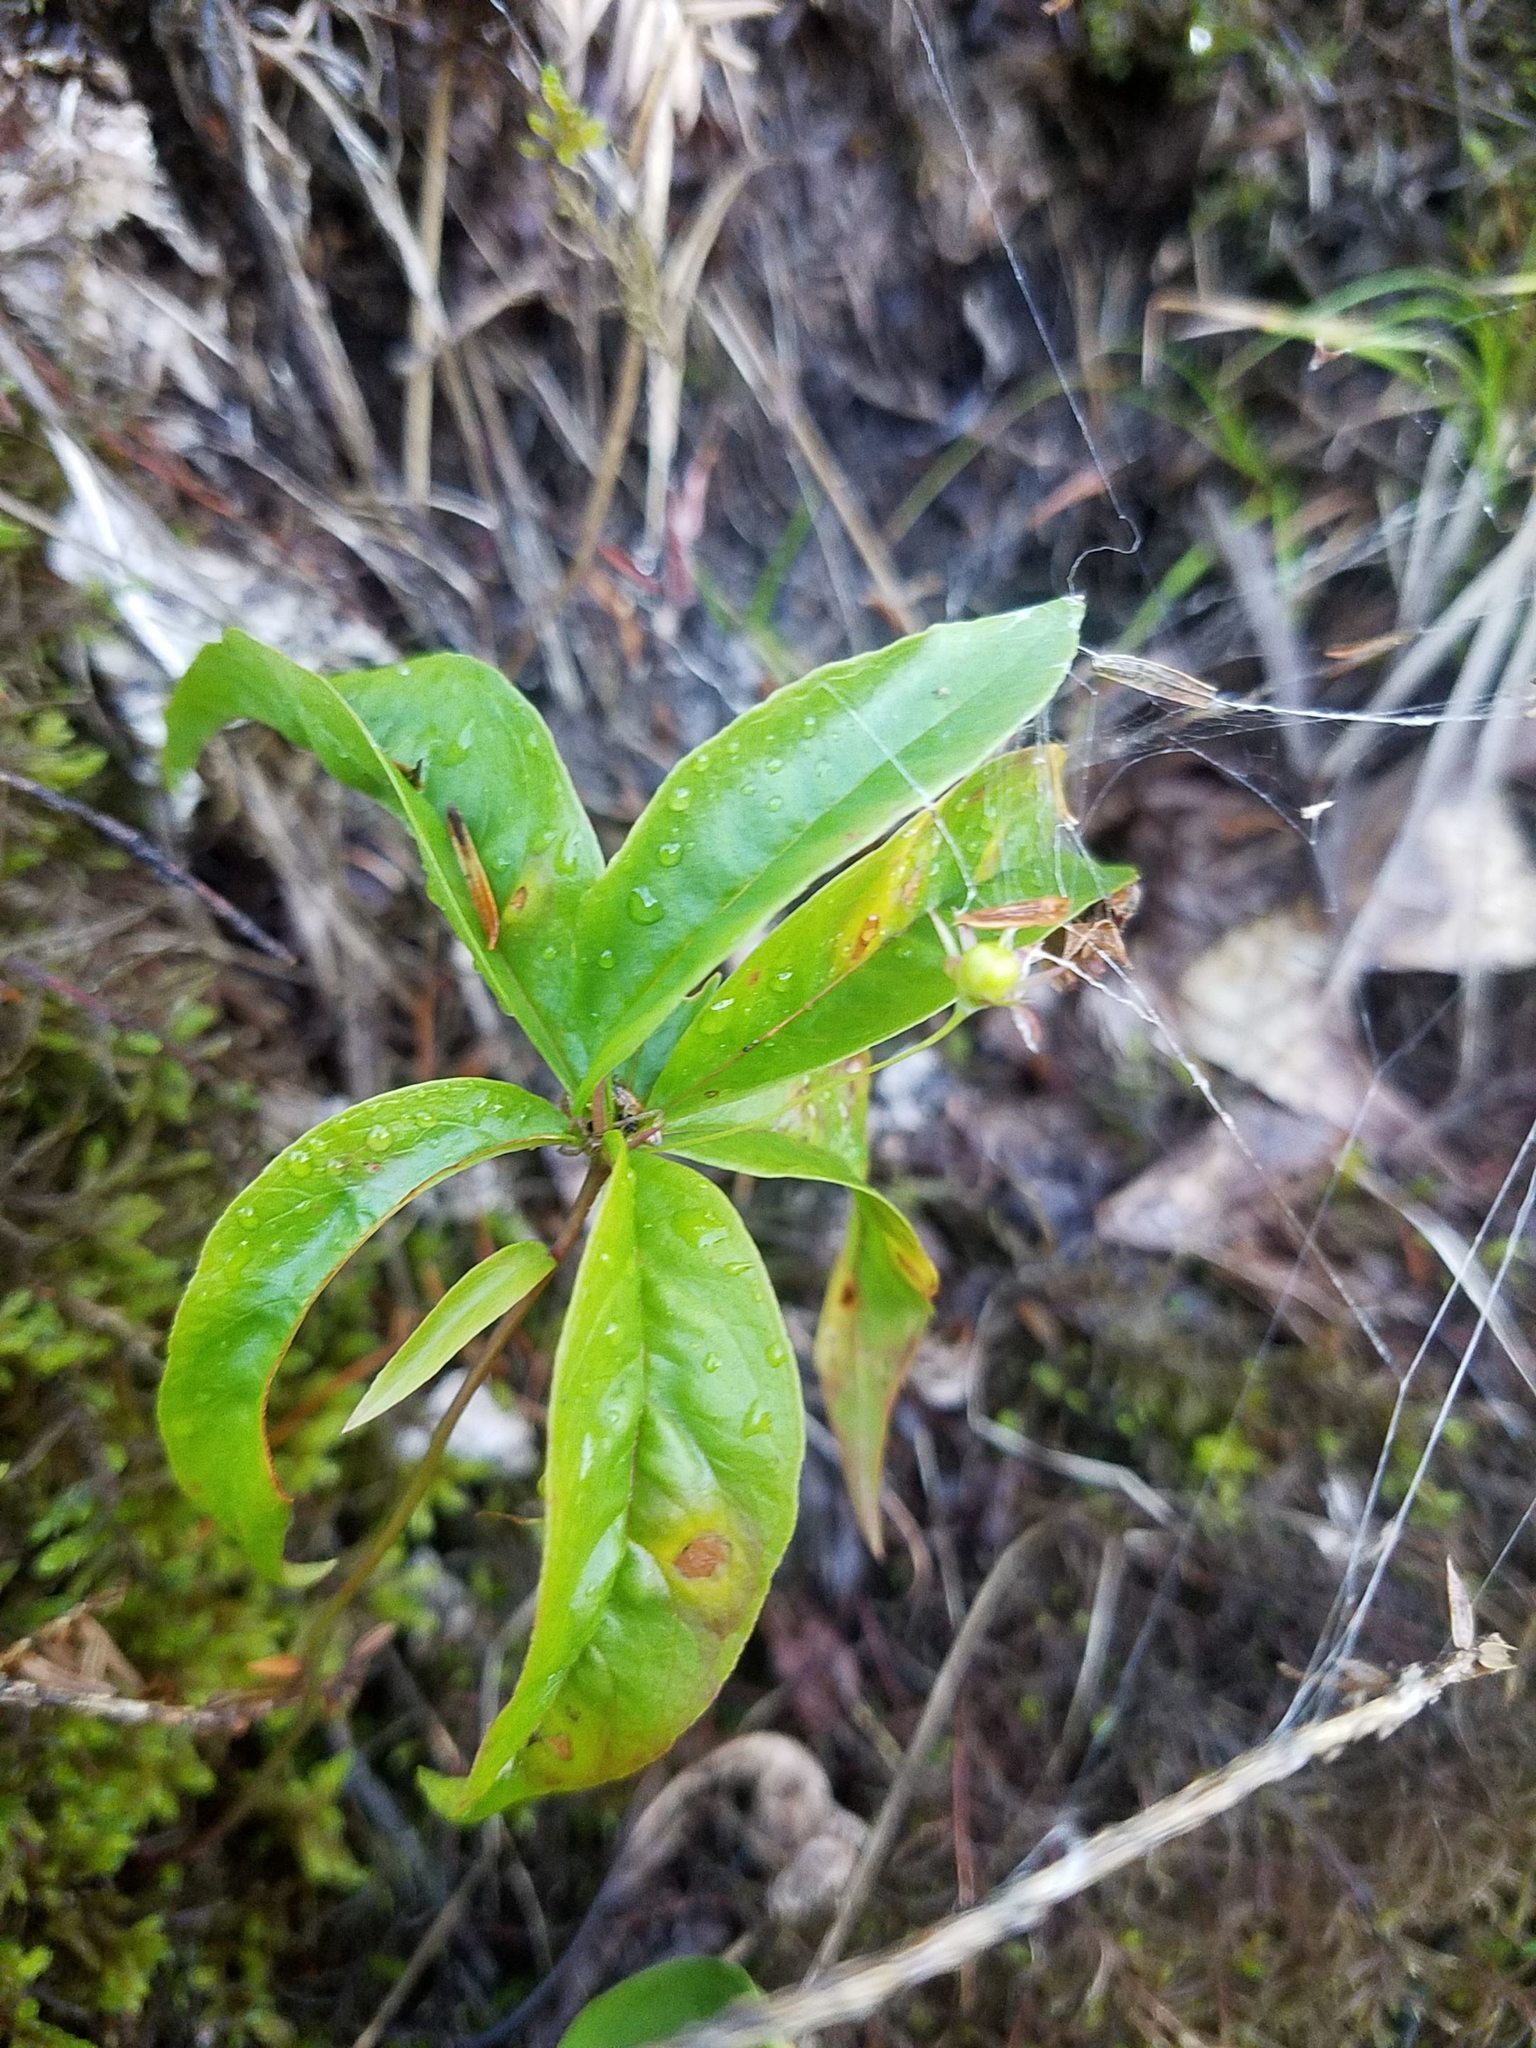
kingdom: Plantae
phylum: Tracheophyta
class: Magnoliopsida
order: Ericales
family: Primulaceae
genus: Lysimachia
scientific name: Lysimachia borealis
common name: American starflower
